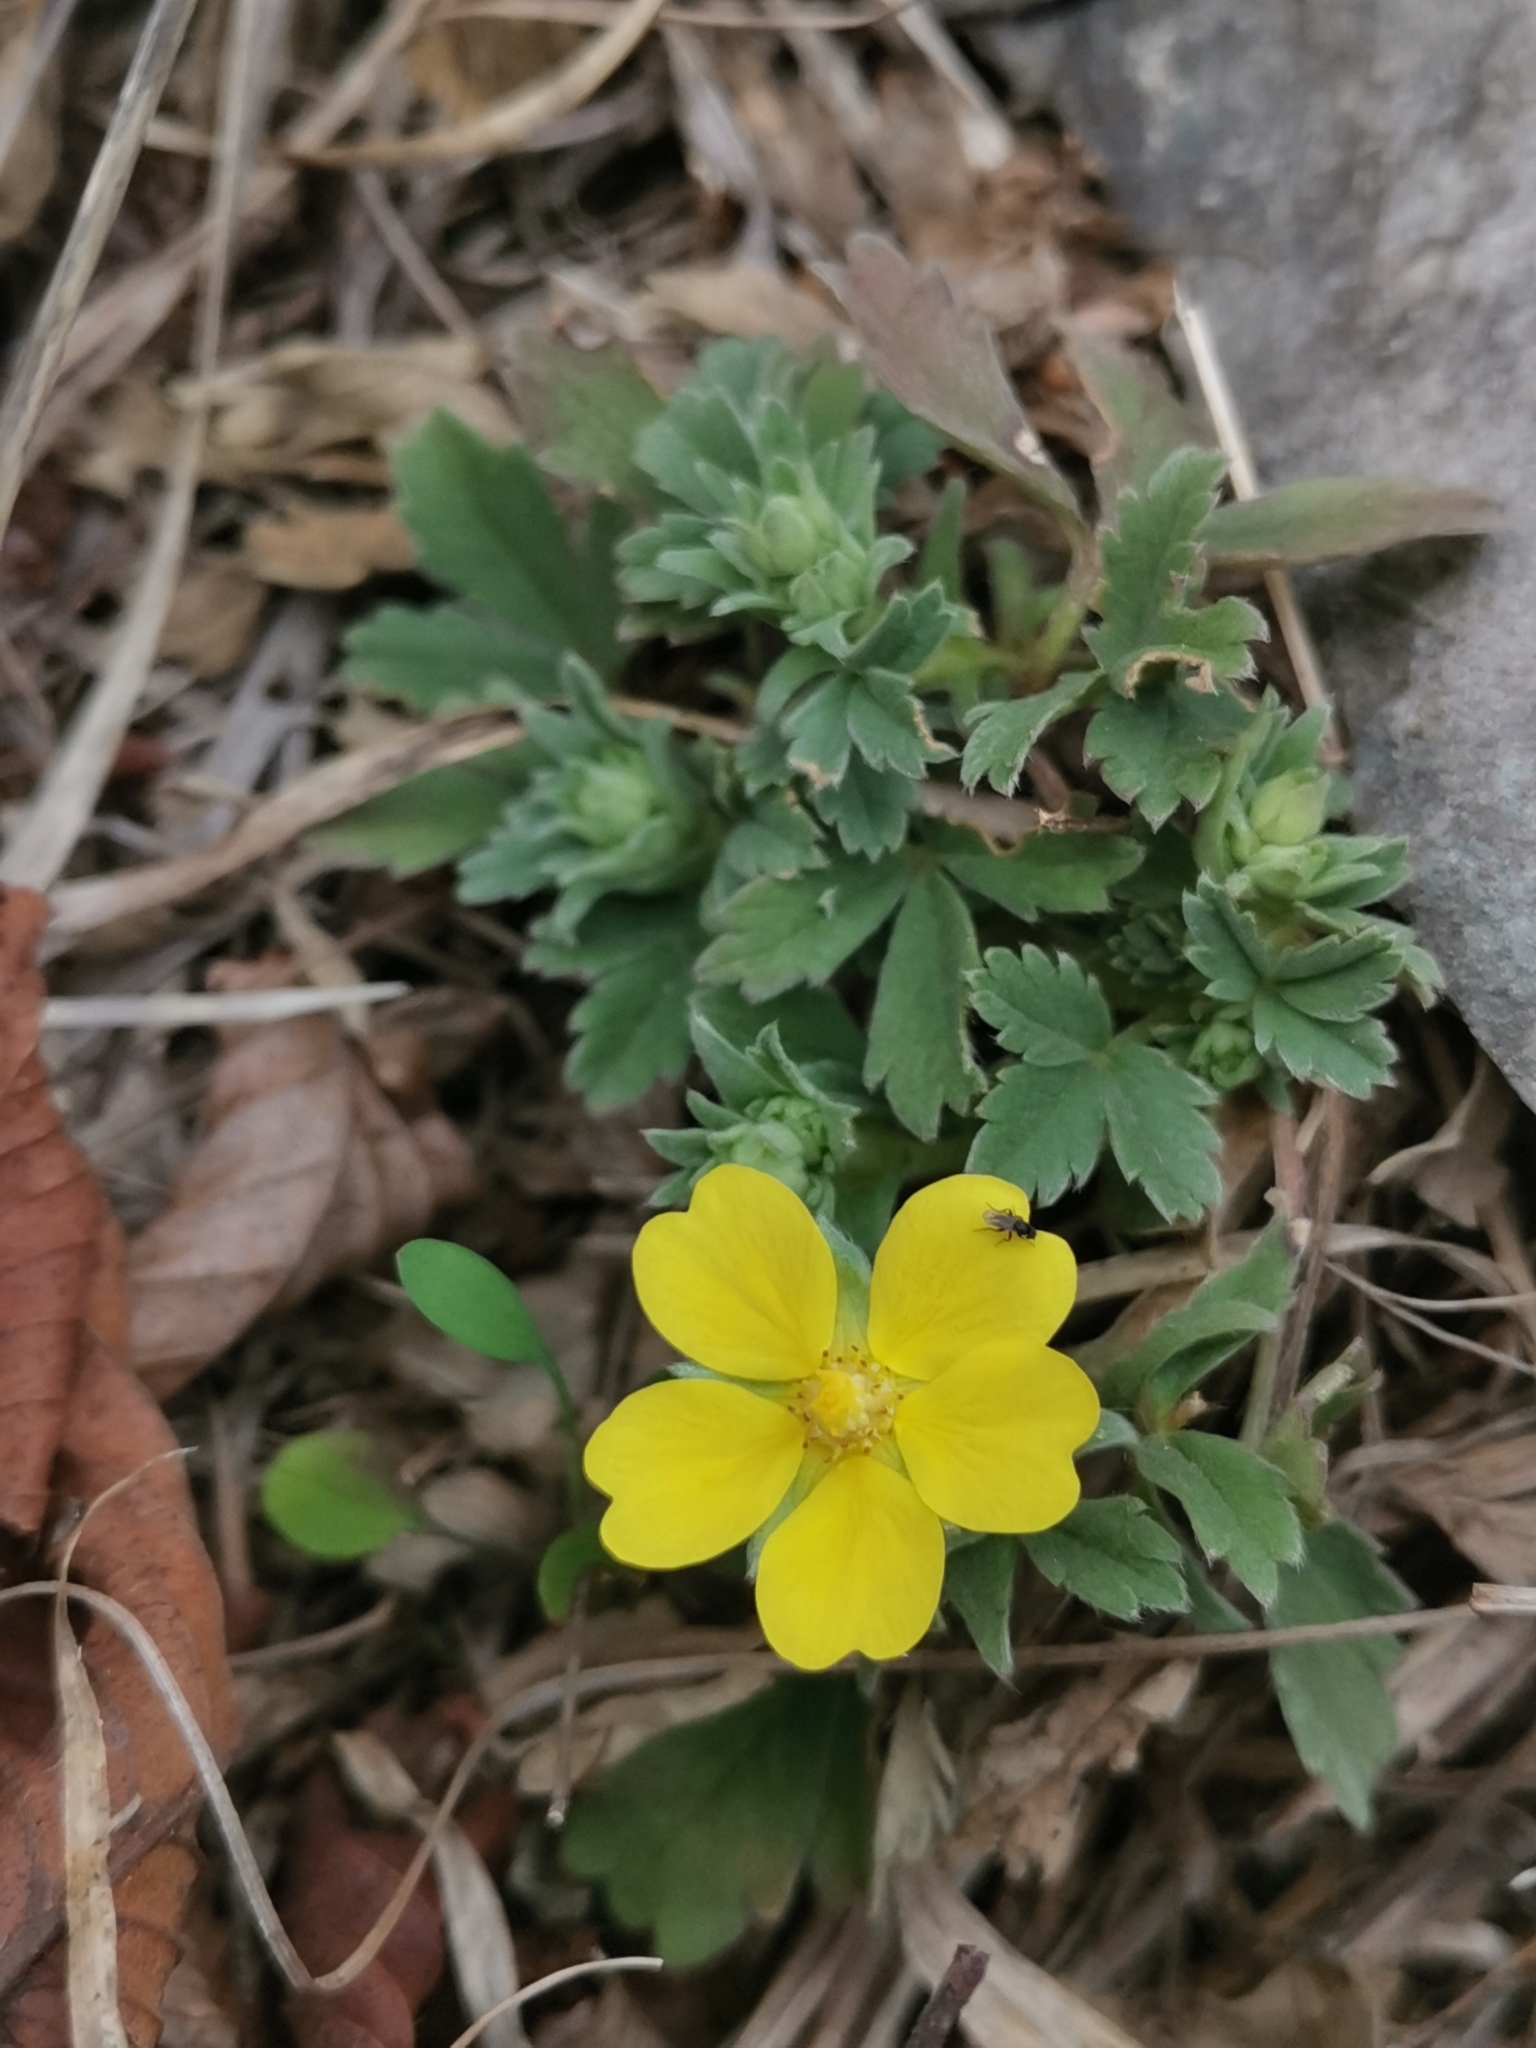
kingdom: Plantae
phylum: Tracheophyta
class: Magnoliopsida
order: Rosales
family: Rosaceae
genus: Potentilla
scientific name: Potentilla tommasiniana
